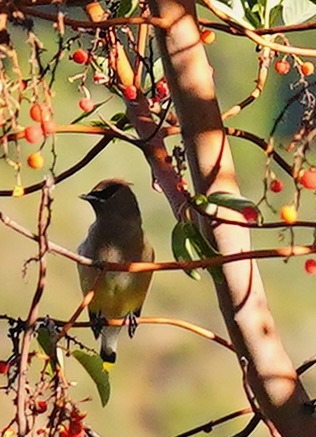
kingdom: Animalia
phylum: Chordata
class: Aves
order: Passeriformes
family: Bombycillidae
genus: Bombycilla
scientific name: Bombycilla cedrorum
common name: Cedar waxwing
